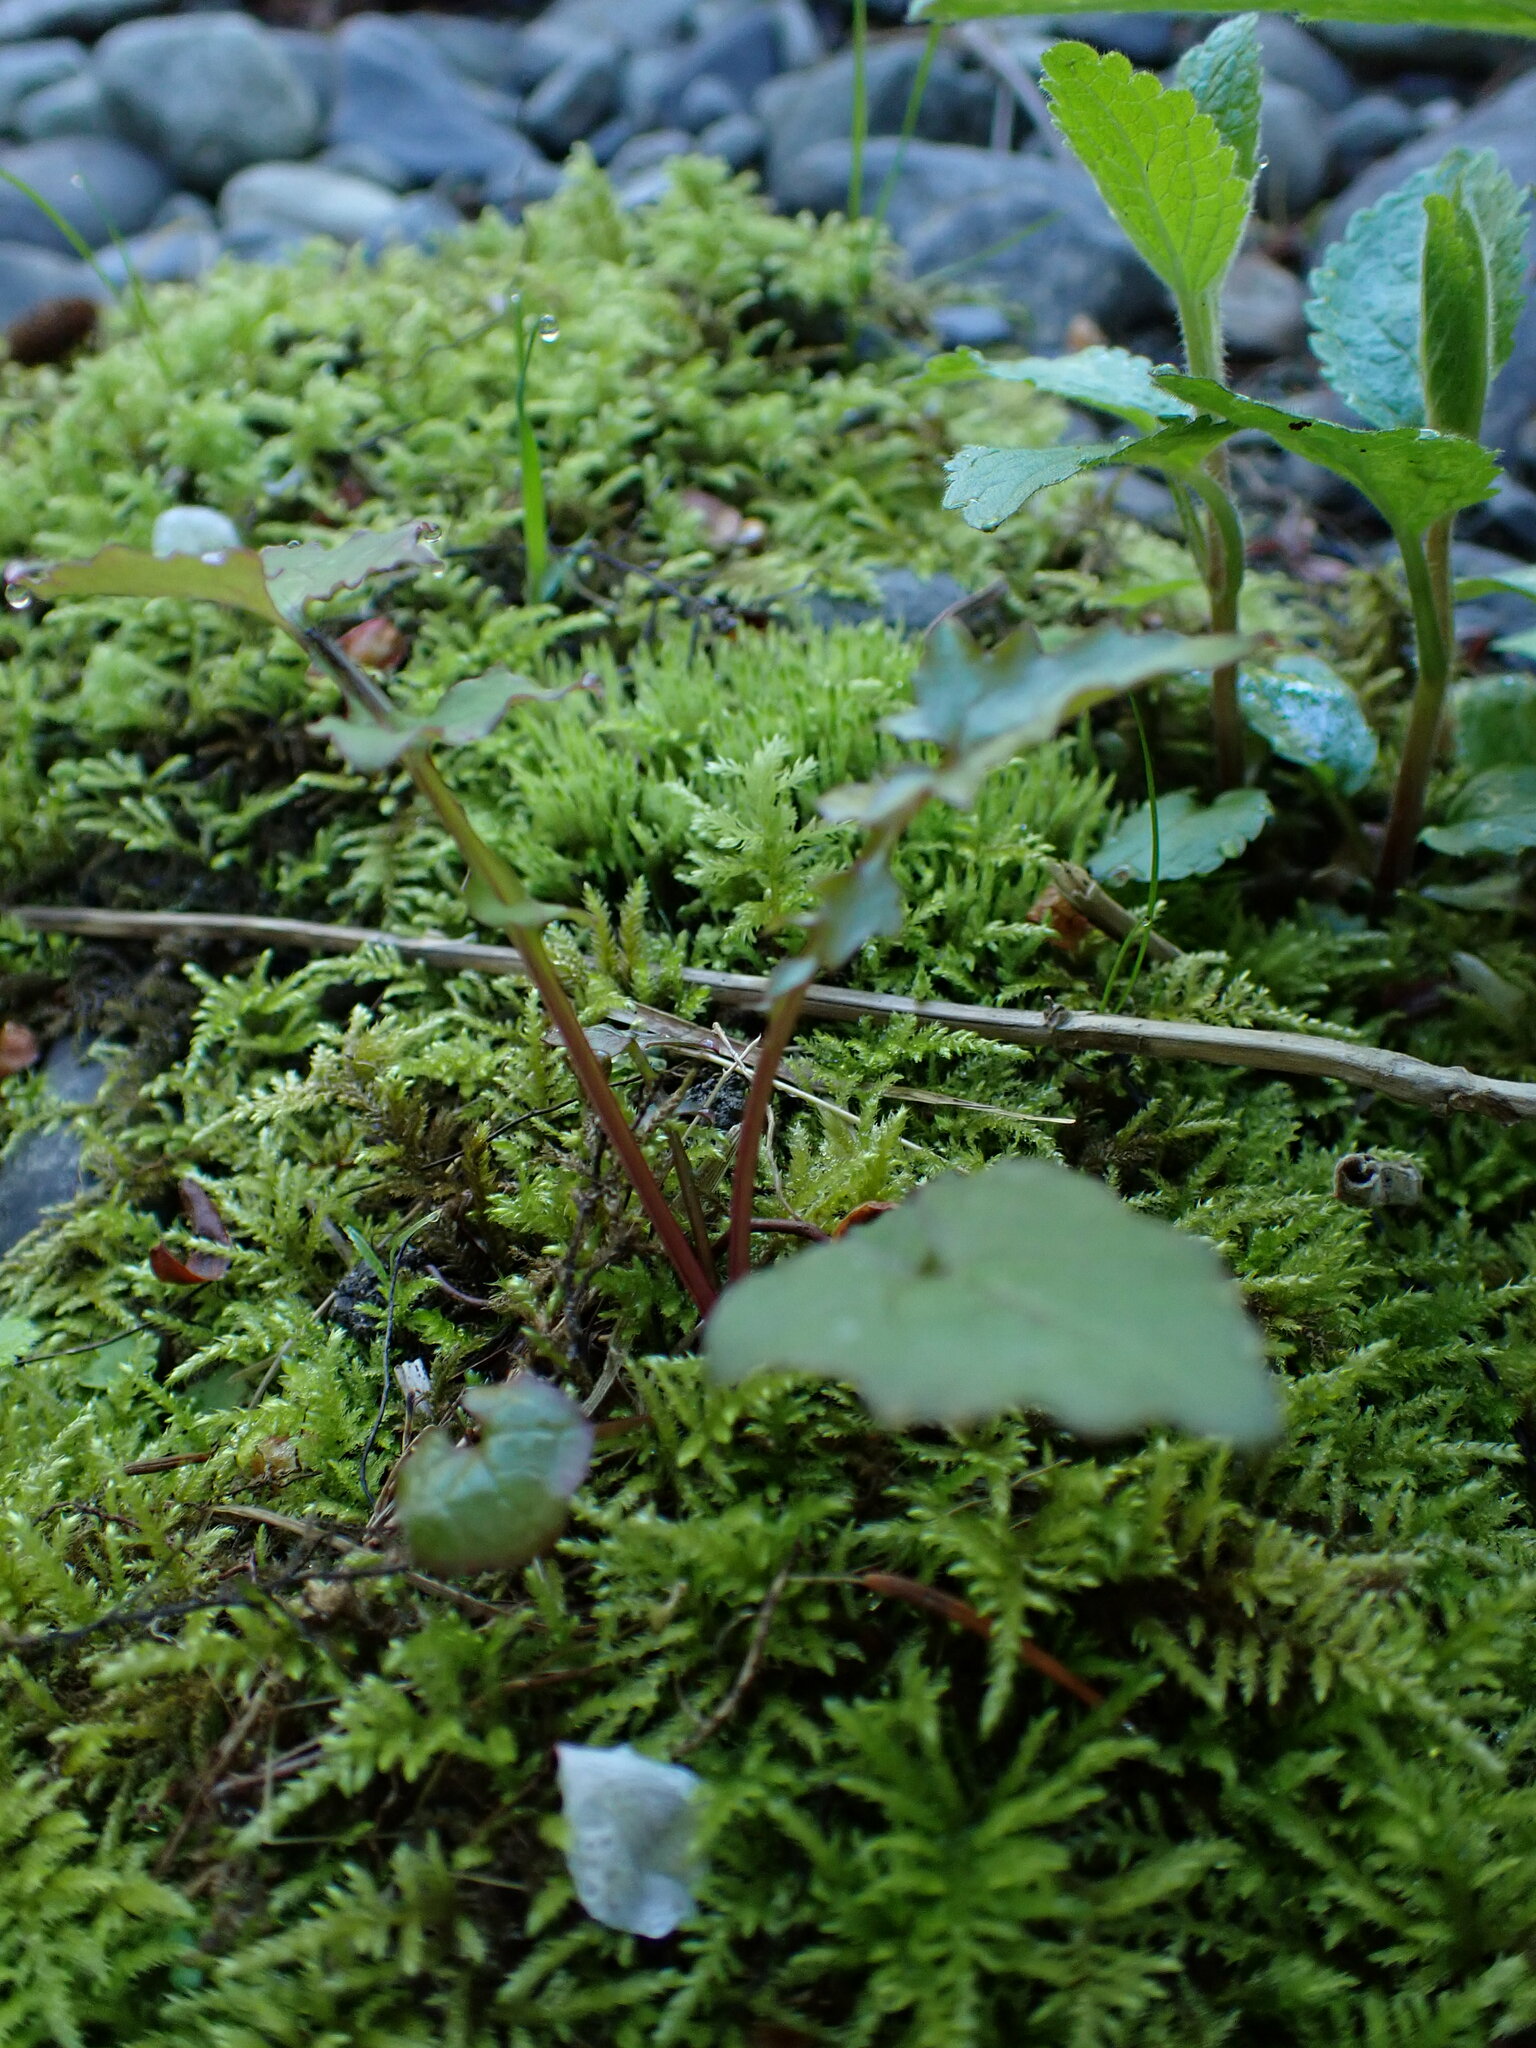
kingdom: Plantae
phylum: Tracheophyta
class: Magnoliopsida
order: Asterales
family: Asteraceae
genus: Mycelis
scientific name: Mycelis muralis
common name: Wall lettuce
